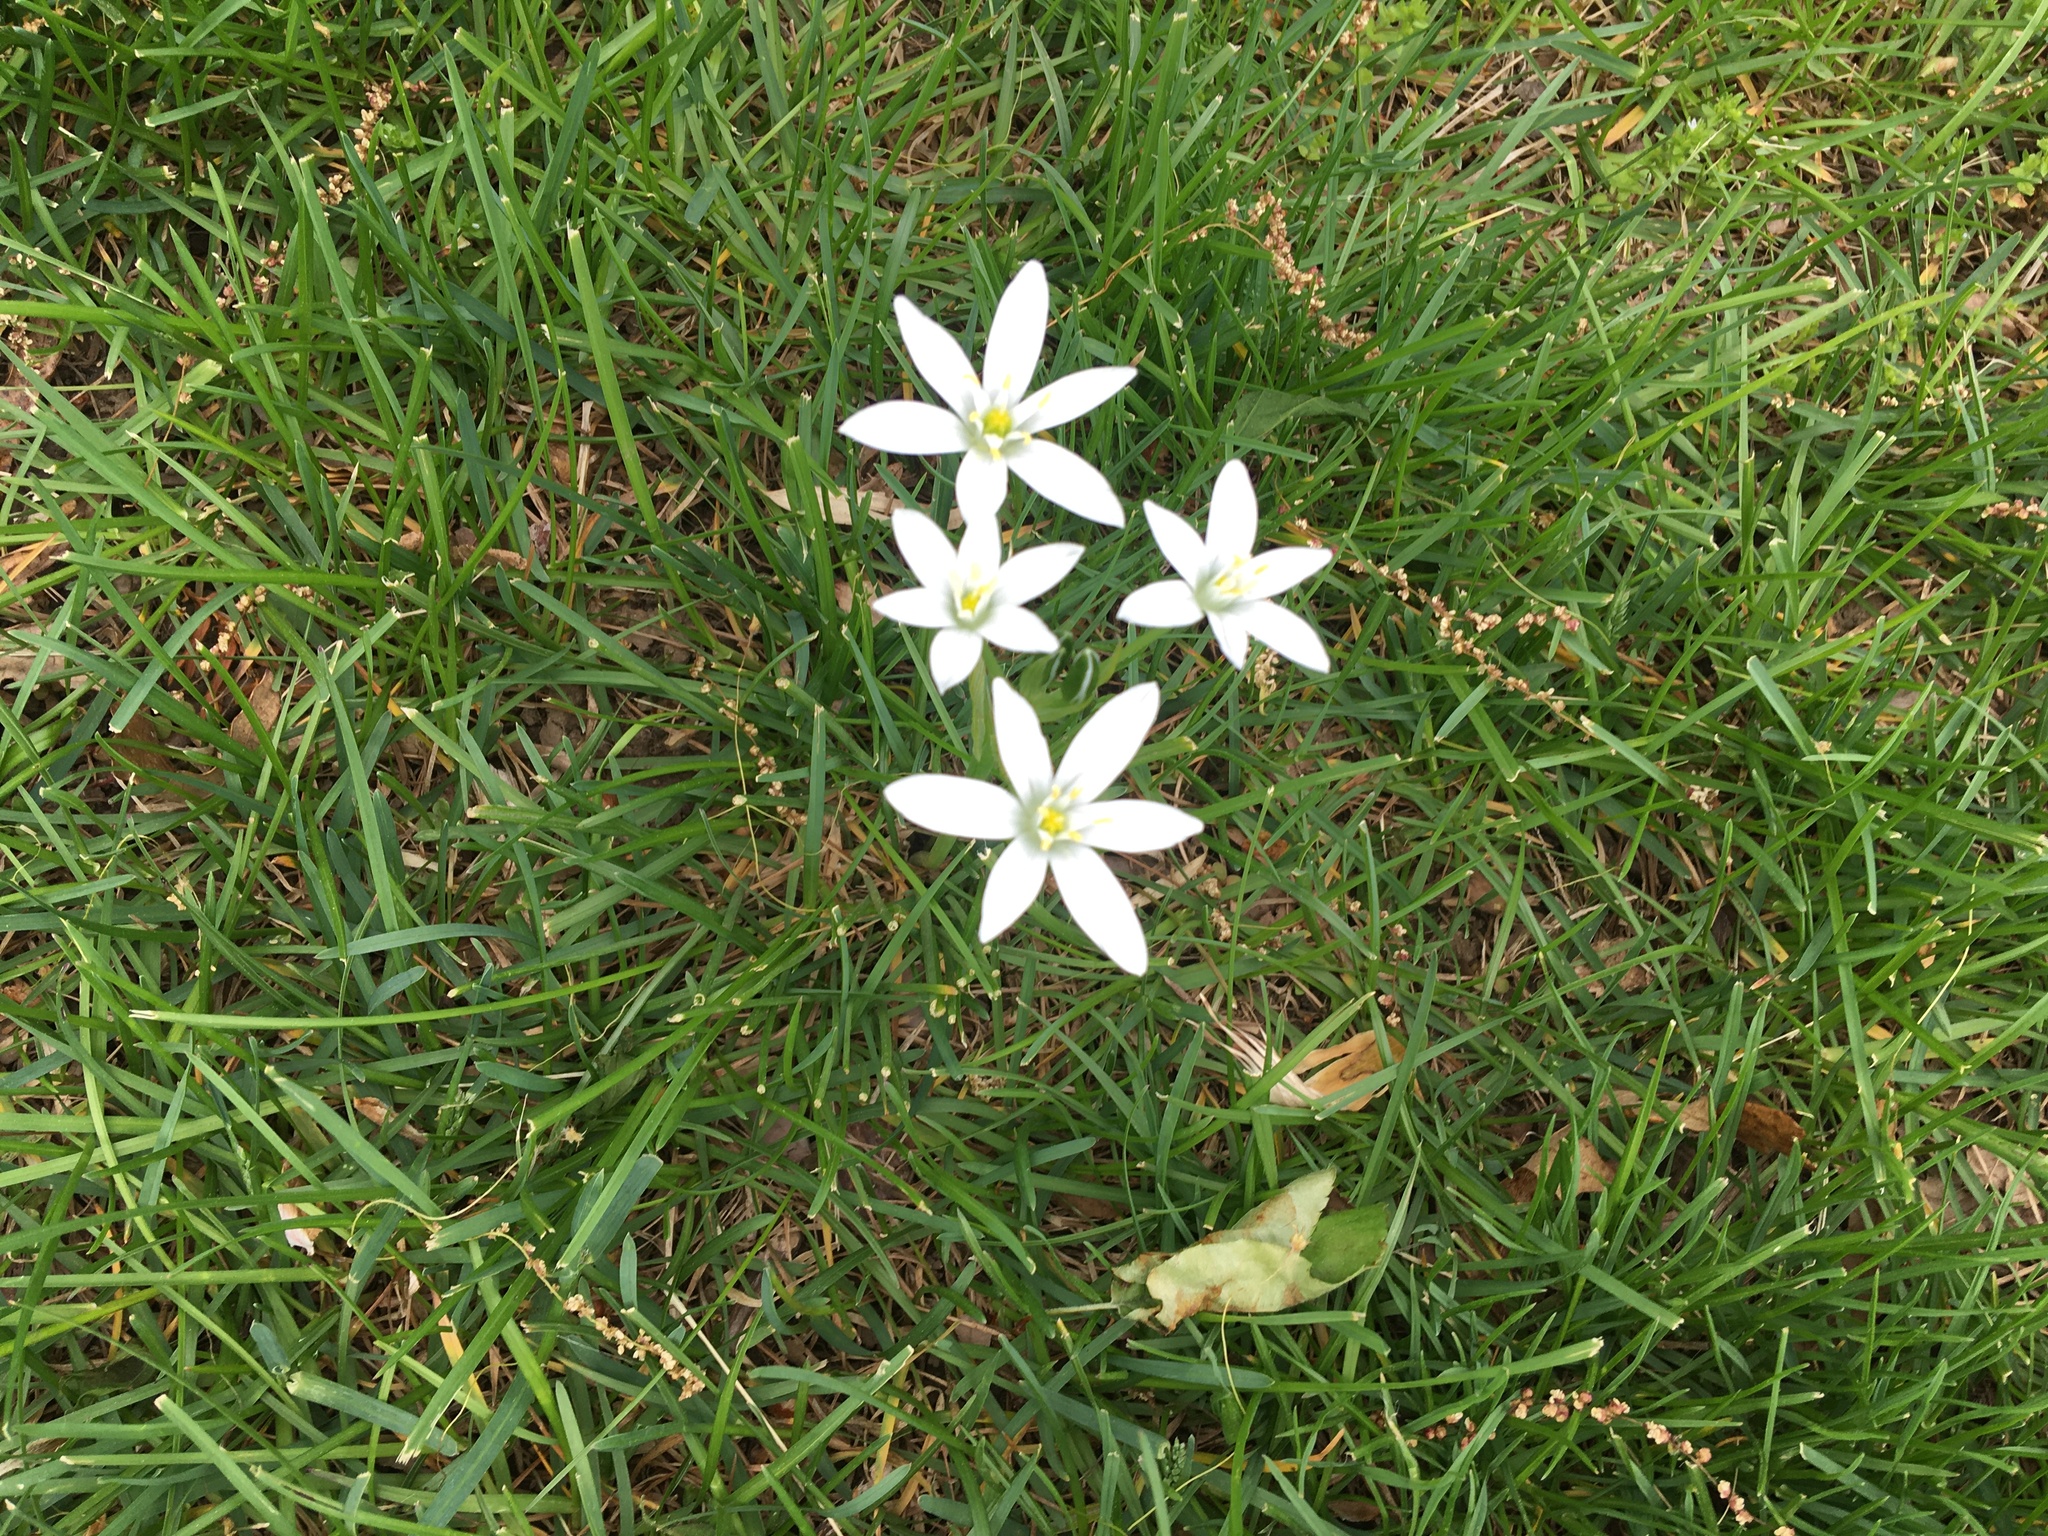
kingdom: Plantae
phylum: Tracheophyta
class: Liliopsida
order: Asparagales
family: Asparagaceae
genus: Ornithogalum
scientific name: Ornithogalum umbellatum
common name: Garden star-of-bethlehem
